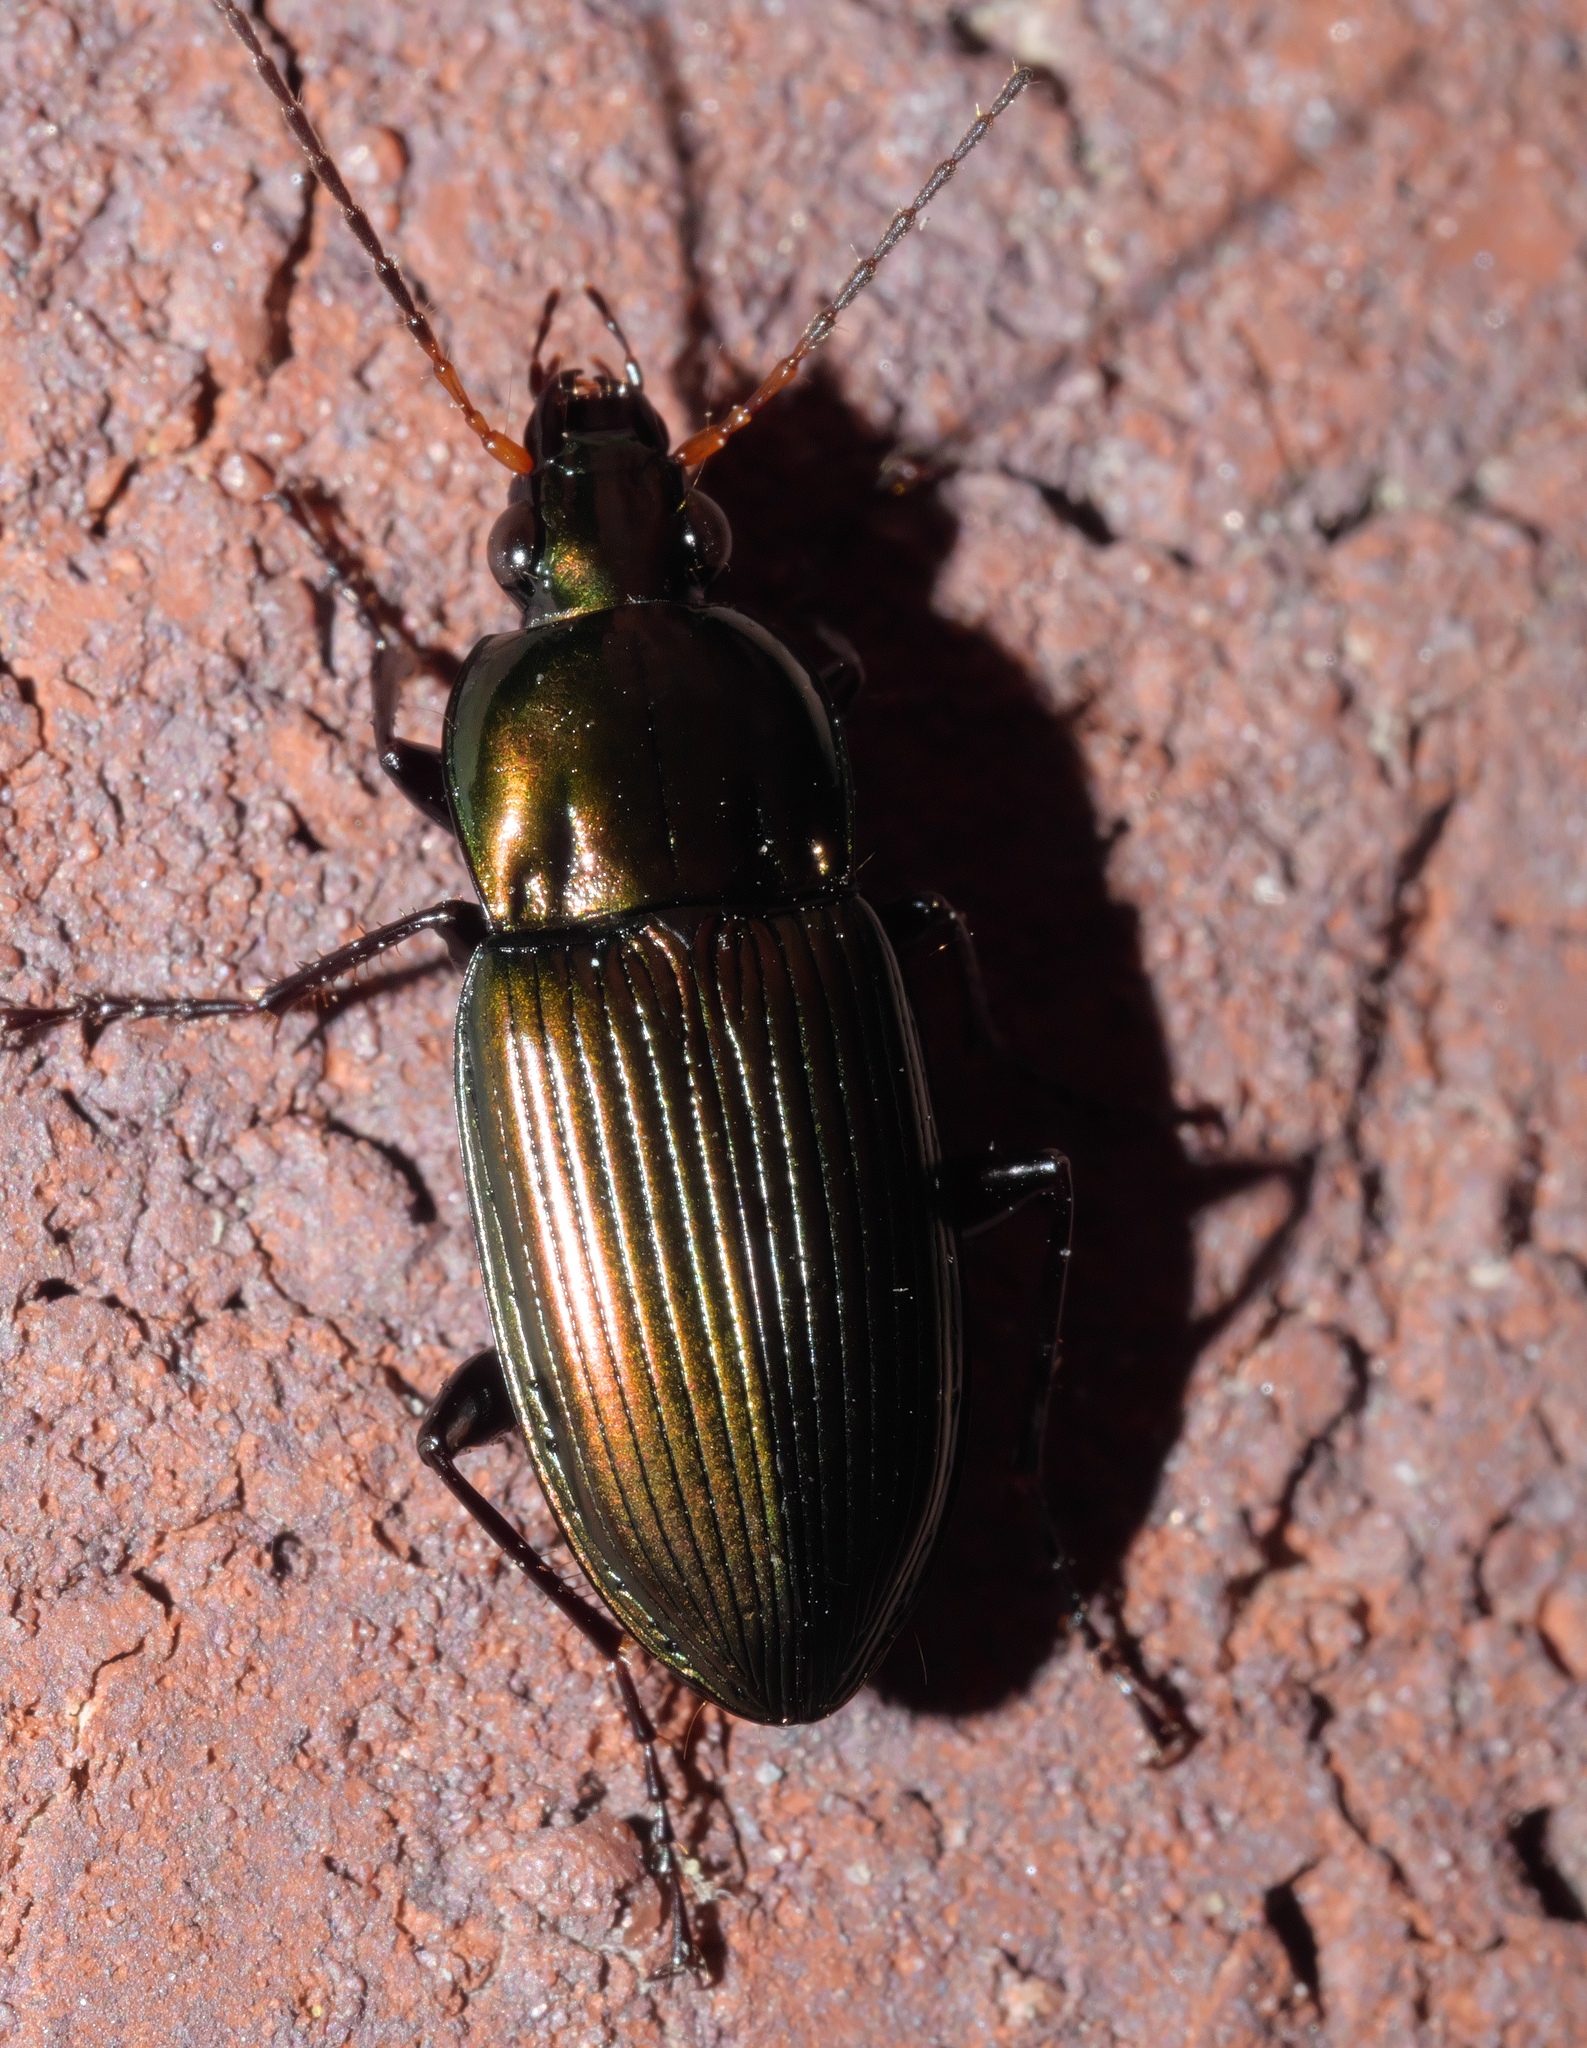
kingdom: Animalia
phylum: Arthropoda
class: Insecta
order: Coleoptera
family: Carabidae
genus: Poecilus
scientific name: Poecilus chalcites
